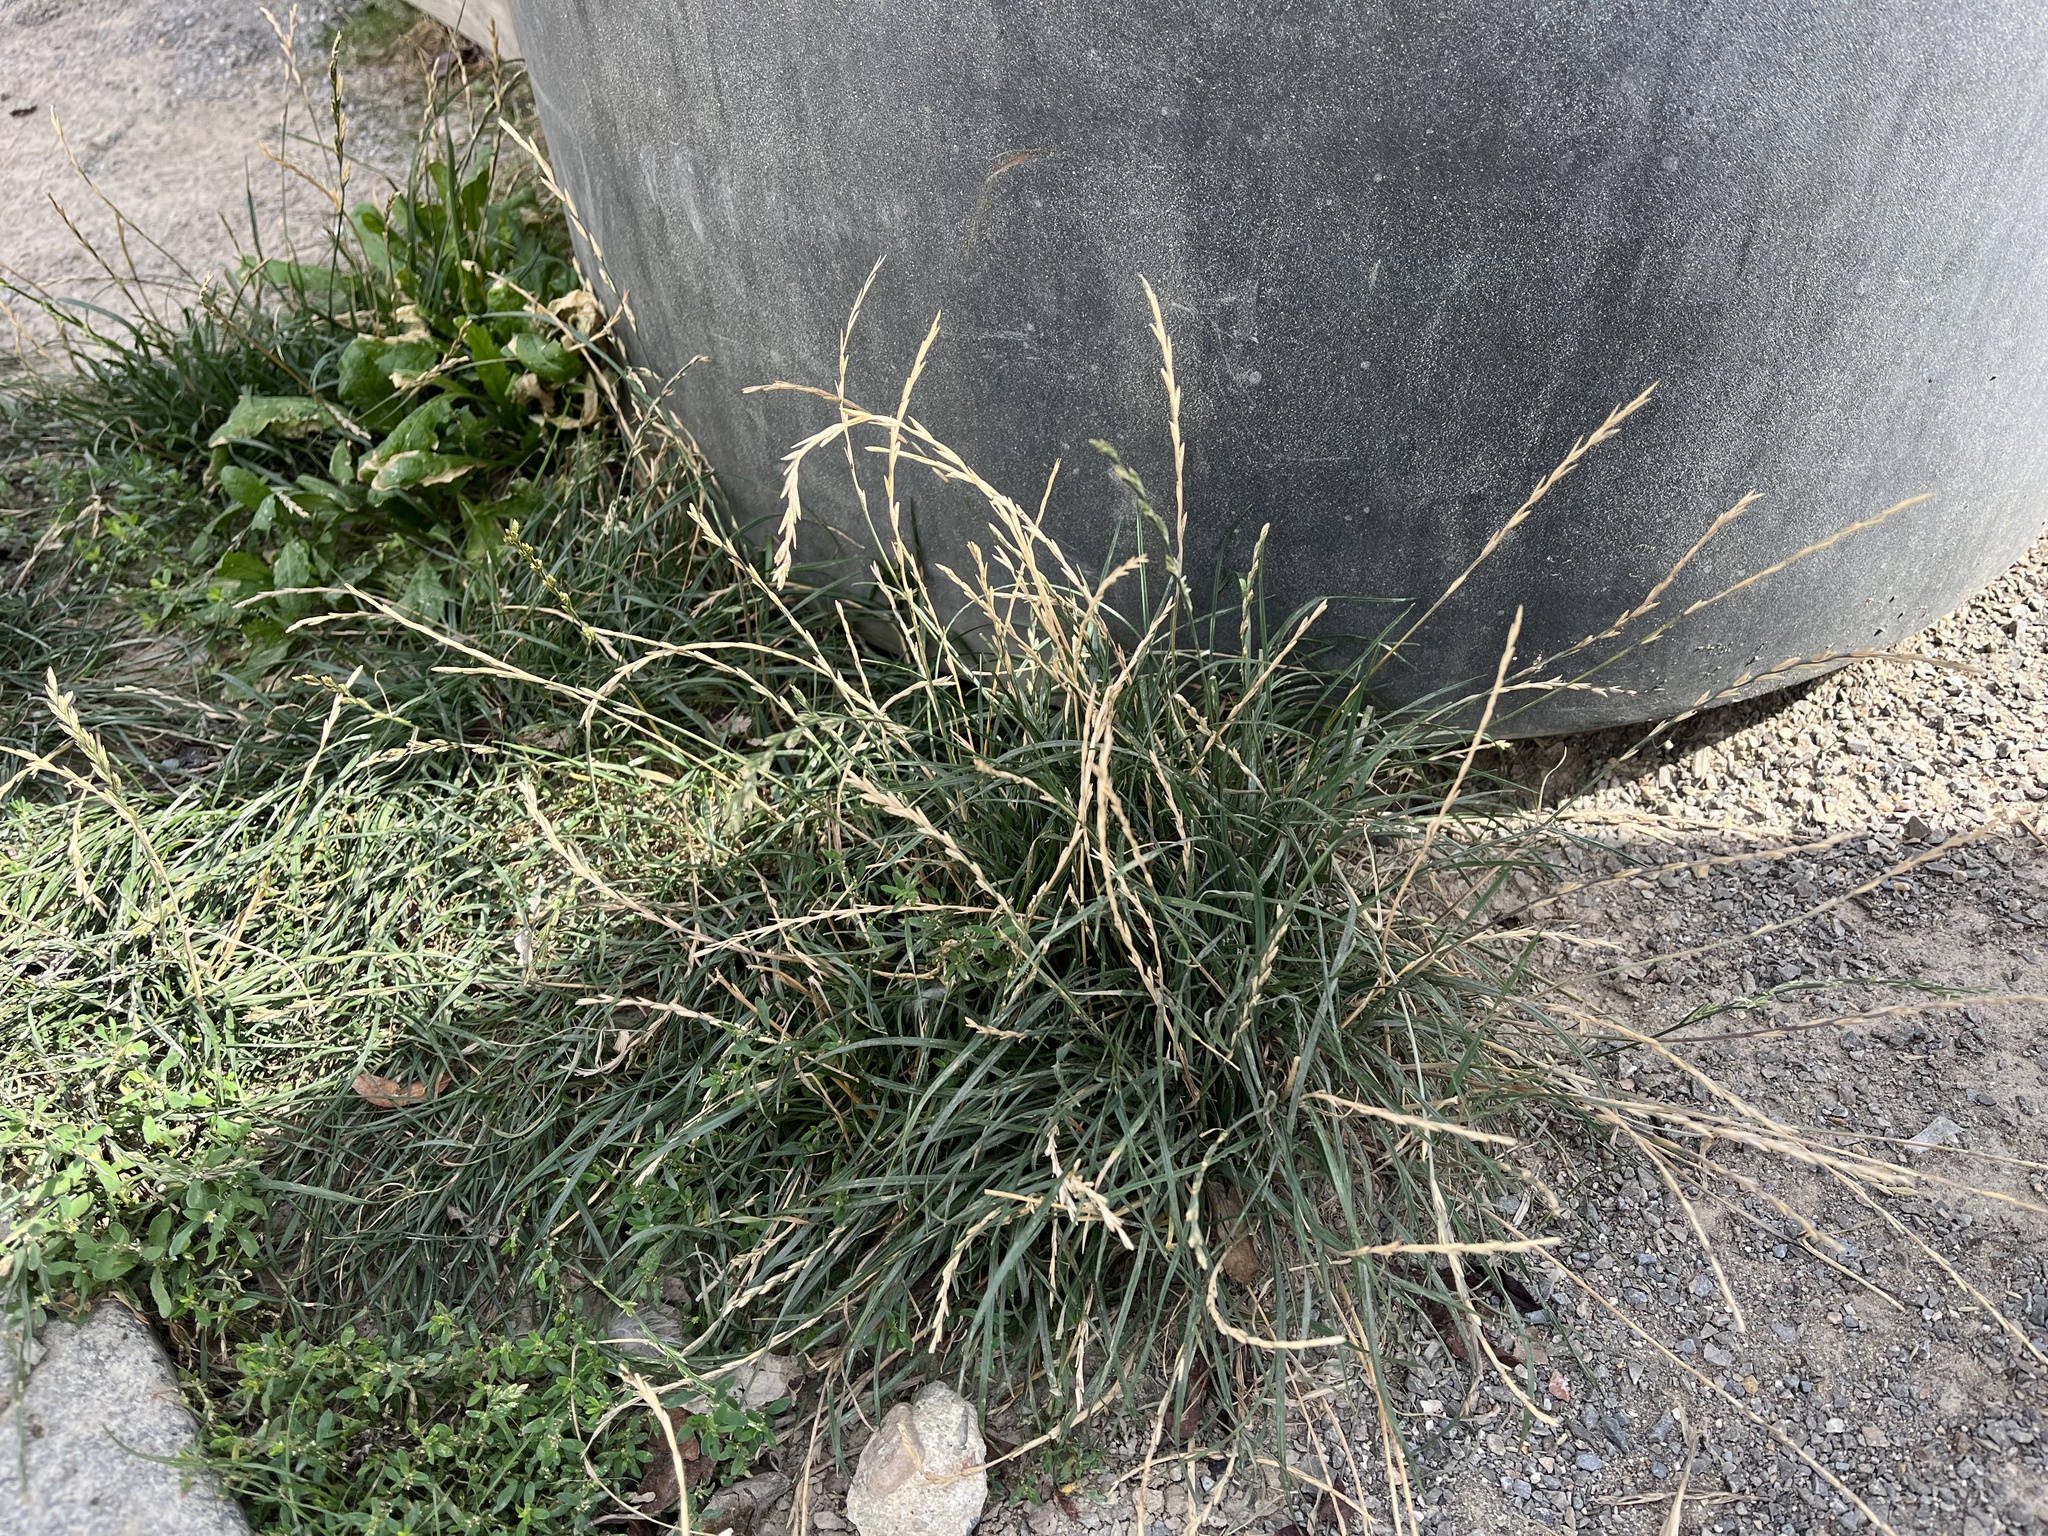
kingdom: Plantae
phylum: Tracheophyta
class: Liliopsida
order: Poales
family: Poaceae
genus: Lolium
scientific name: Lolium perenne
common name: Perennial ryegrass
